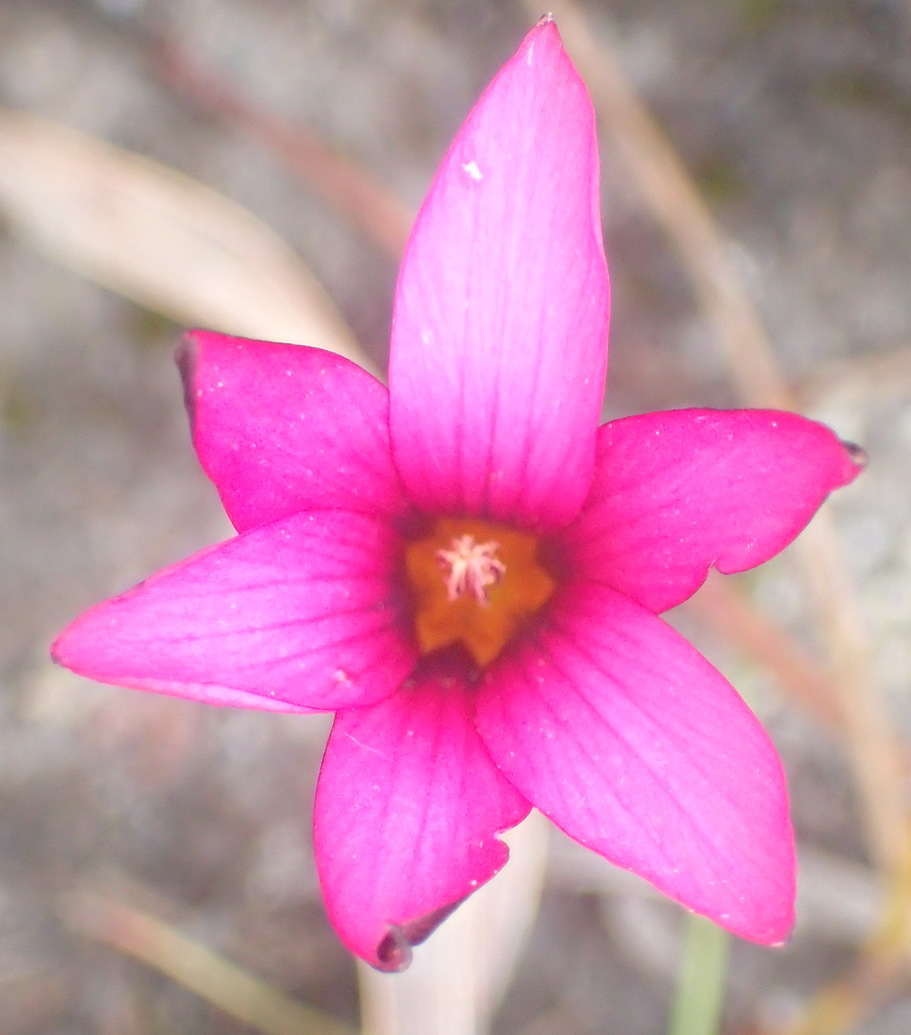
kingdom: Plantae
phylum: Tracheophyta
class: Liliopsida
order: Asparagales
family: Iridaceae
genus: Romulea
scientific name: Romulea cruciata
